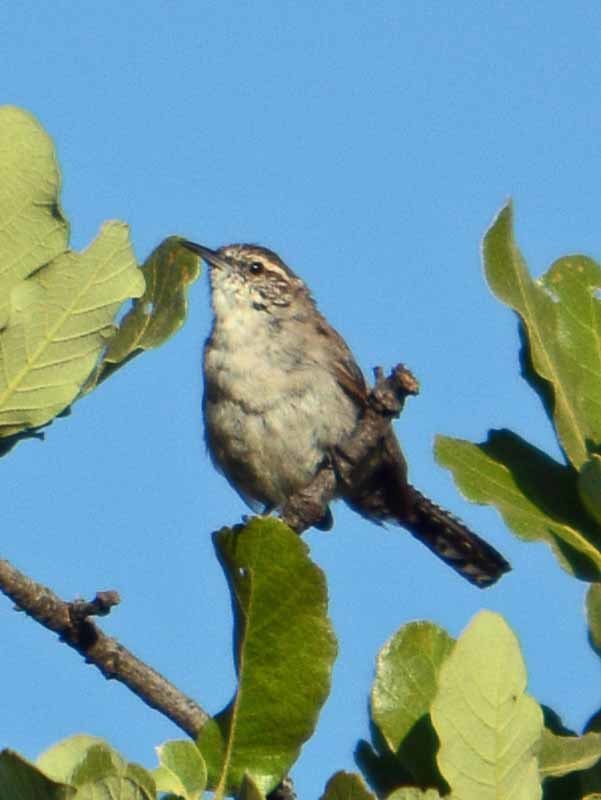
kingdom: Animalia
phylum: Chordata
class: Aves
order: Passeriformes
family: Troglodytidae
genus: Thryomanes
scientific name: Thryomanes bewickii
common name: Bewick's wren
